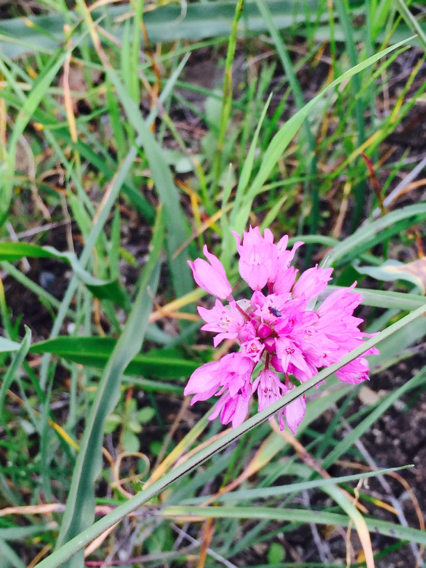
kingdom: Plantae
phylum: Tracheophyta
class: Liliopsida
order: Asparagales
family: Amaryllidaceae
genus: Allium
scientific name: Allium serra
